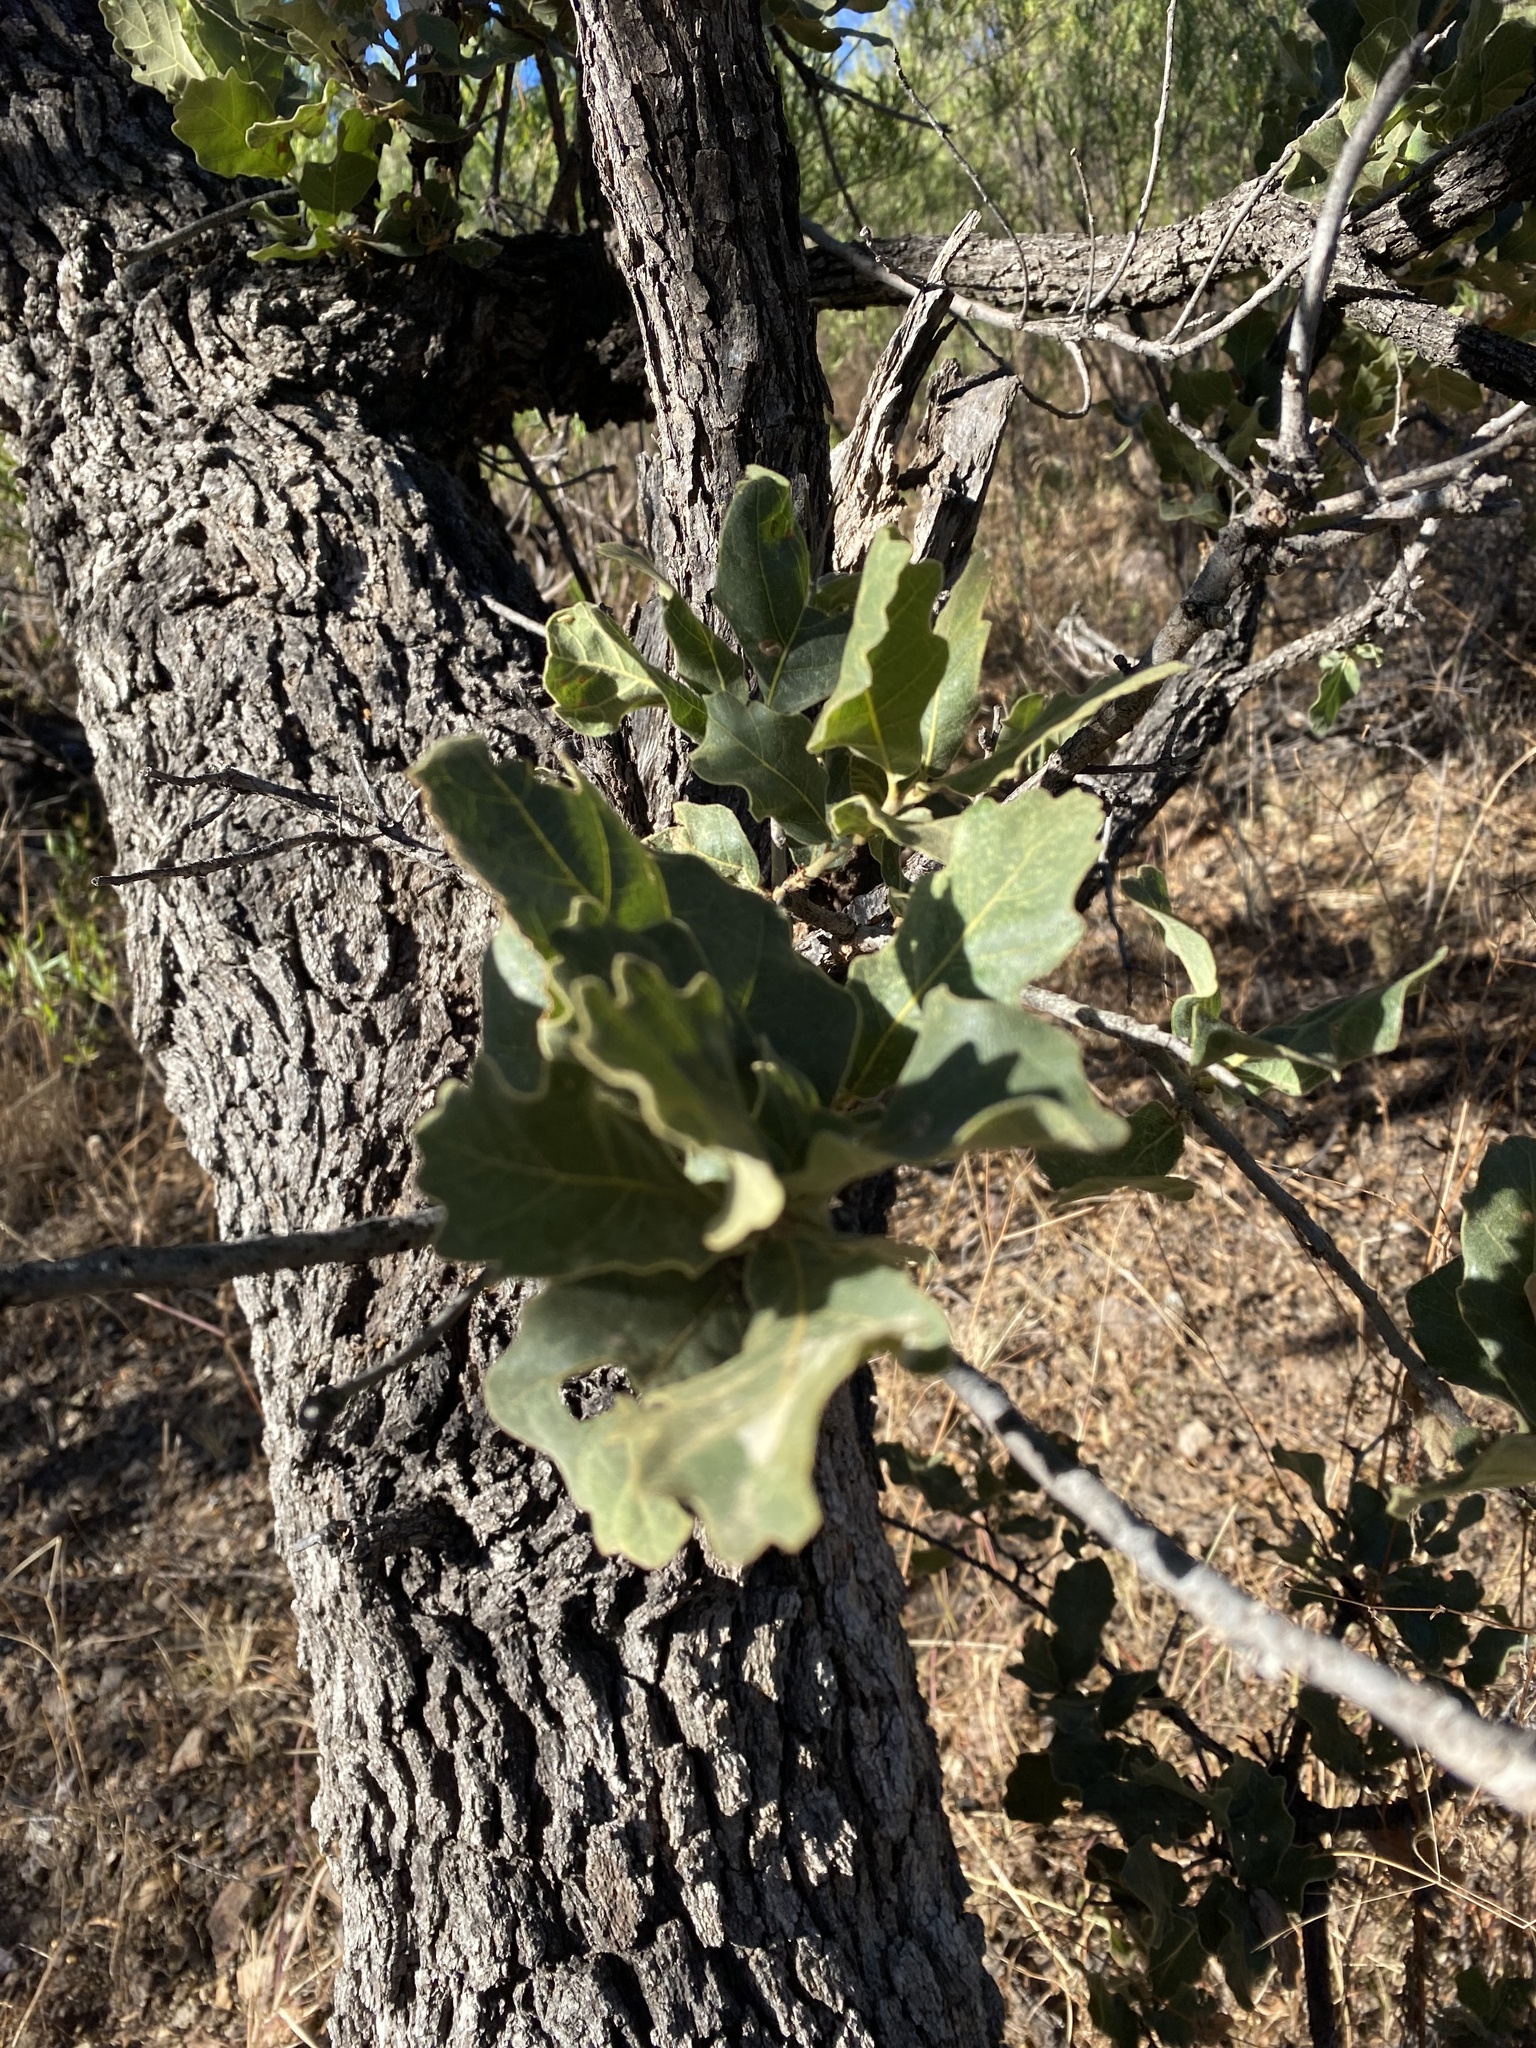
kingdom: Plantae
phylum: Tracheophyta
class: Magnoliopsida
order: Fagales
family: Fagaceae
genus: Quercus
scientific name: Quercus chihuahuensis
